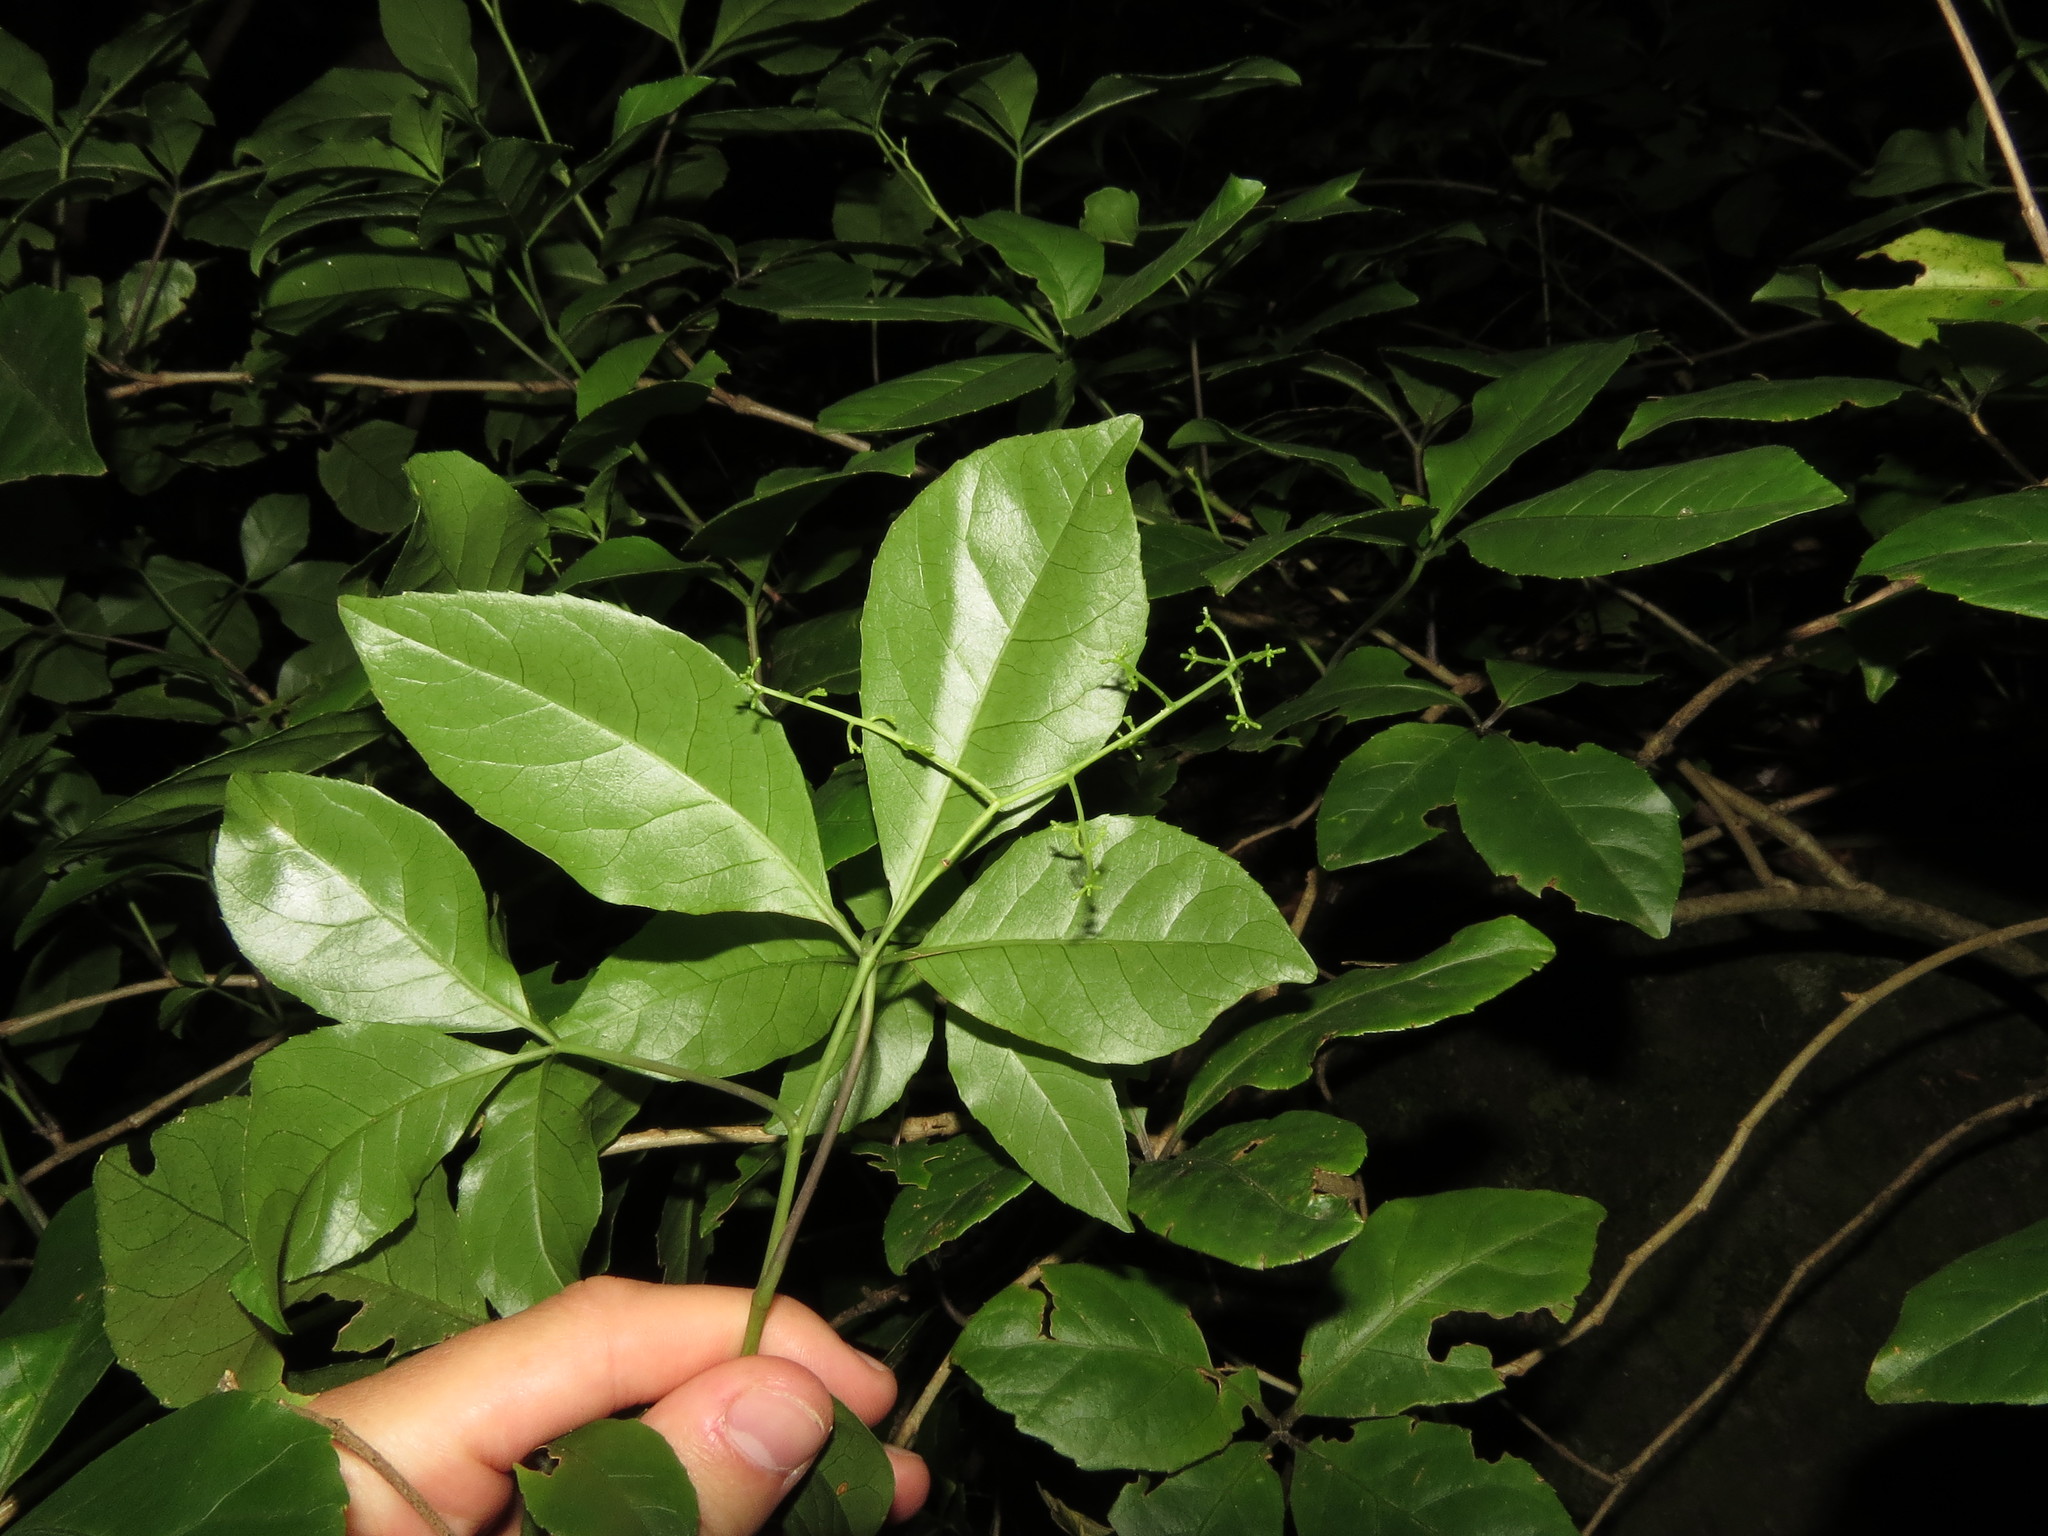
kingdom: Plantae
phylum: Tracheophyta
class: Magnoliopsida
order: Apiales
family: Araliaceae
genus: Raukaua
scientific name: Raukaua valdiviensis
